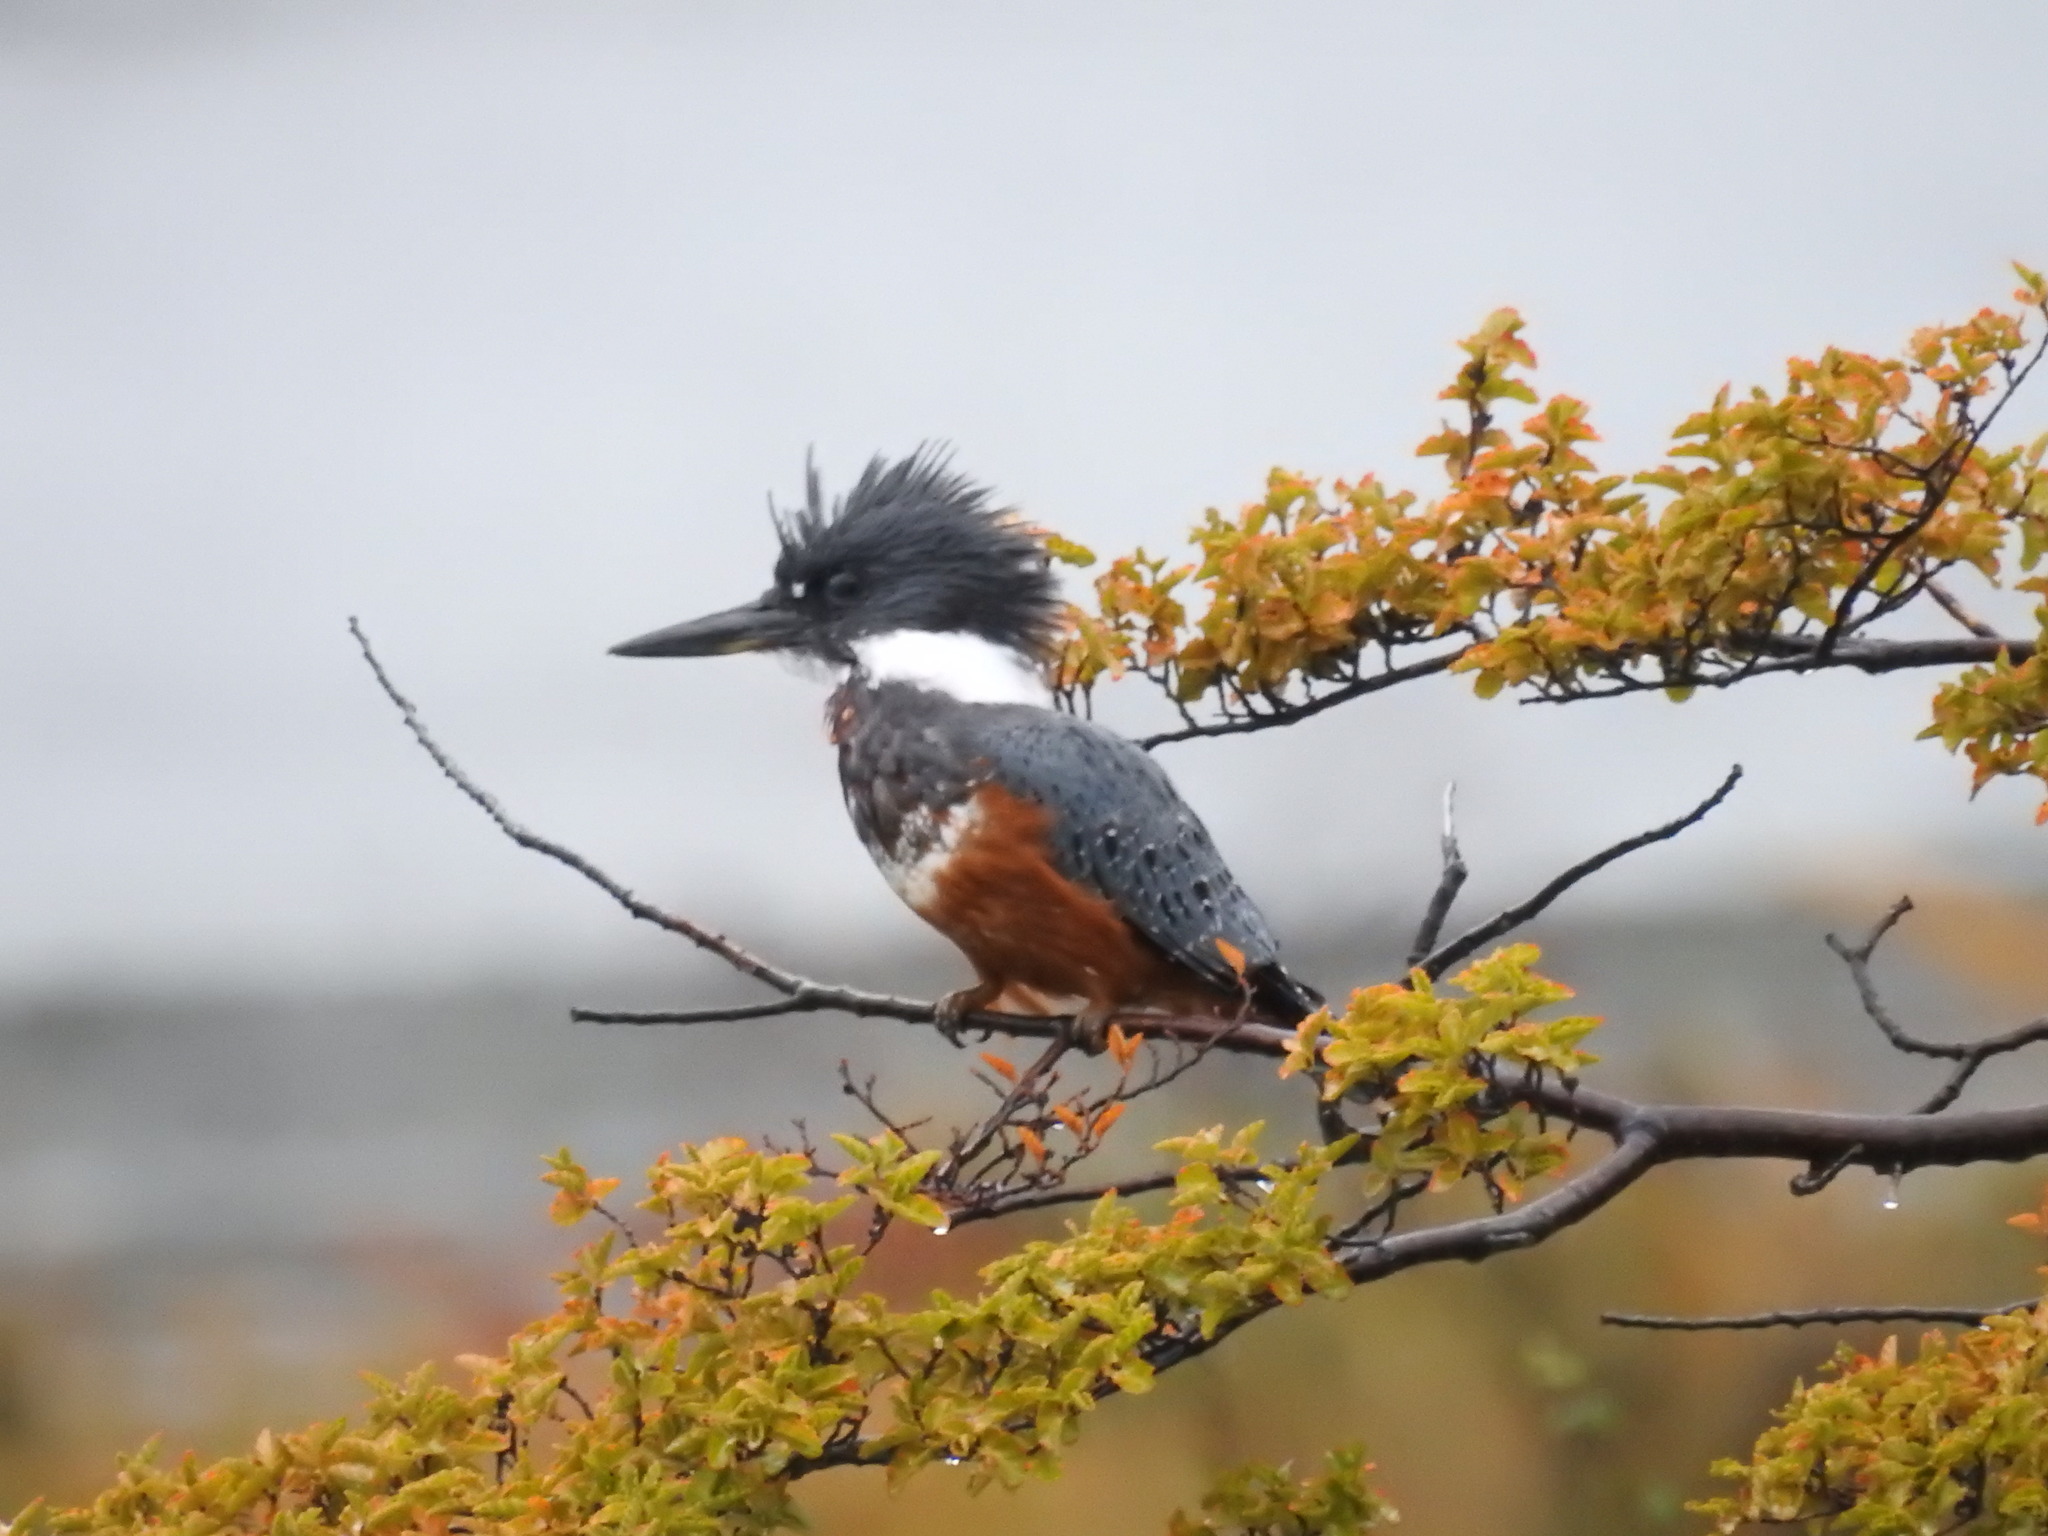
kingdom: Animalia
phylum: Chordata
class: Aves
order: Coraciiformes
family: Alcedinidae
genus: Megaceryle
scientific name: Megaceryle torquata
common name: Ringed kingfisher
